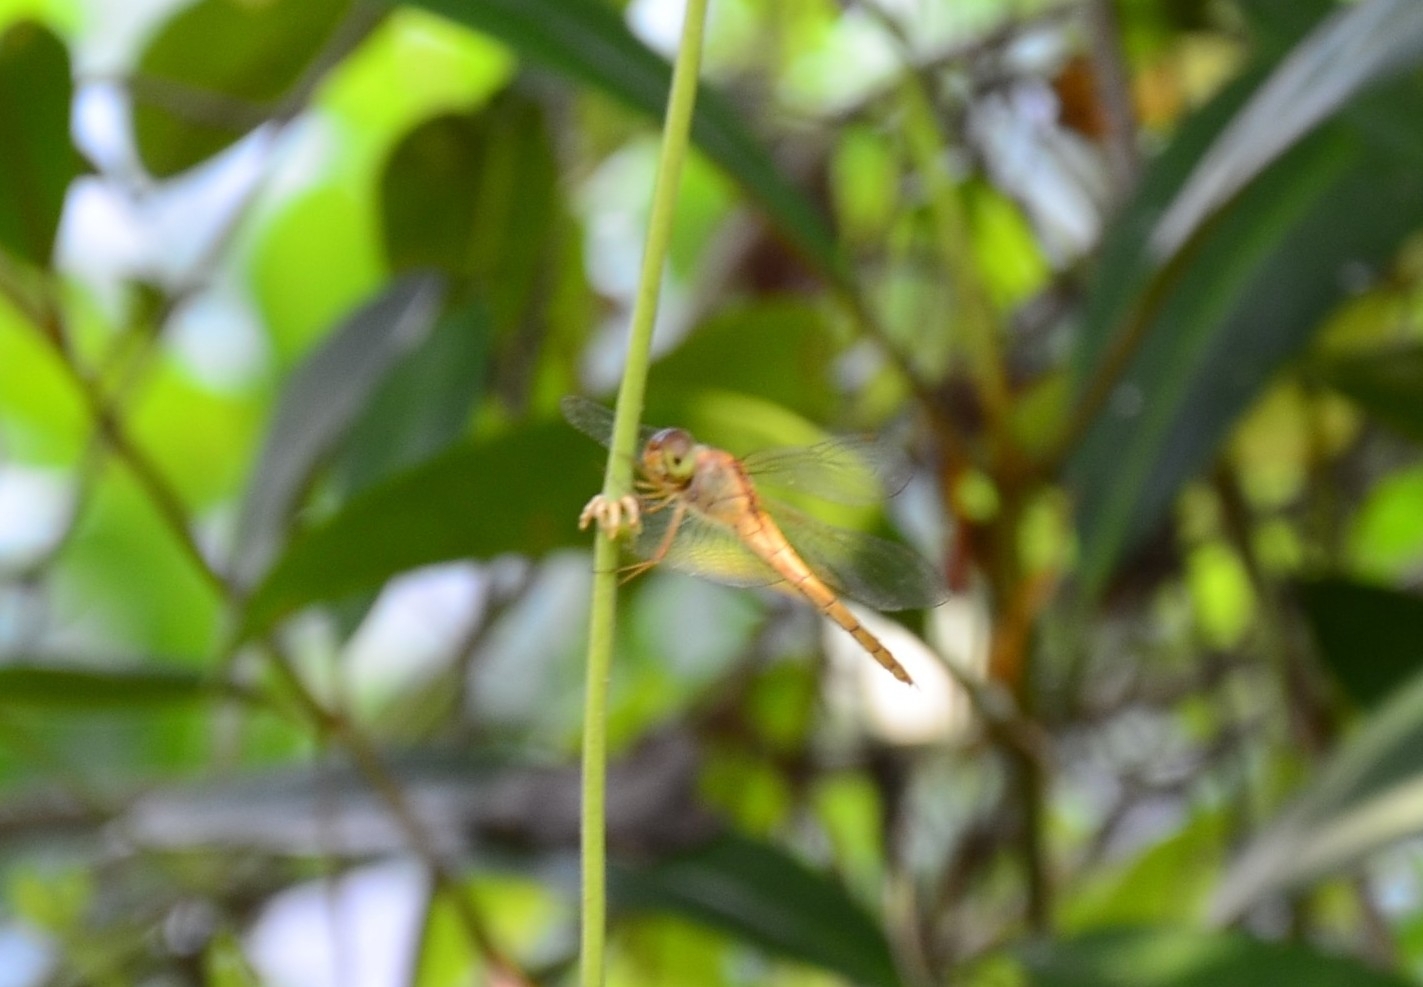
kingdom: Animalia
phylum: Arthropoda
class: Insecta
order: Odonata
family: Libellulidae
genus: Tholymis
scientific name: Tholymis tillarga
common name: Coral-tailed cloud wing
